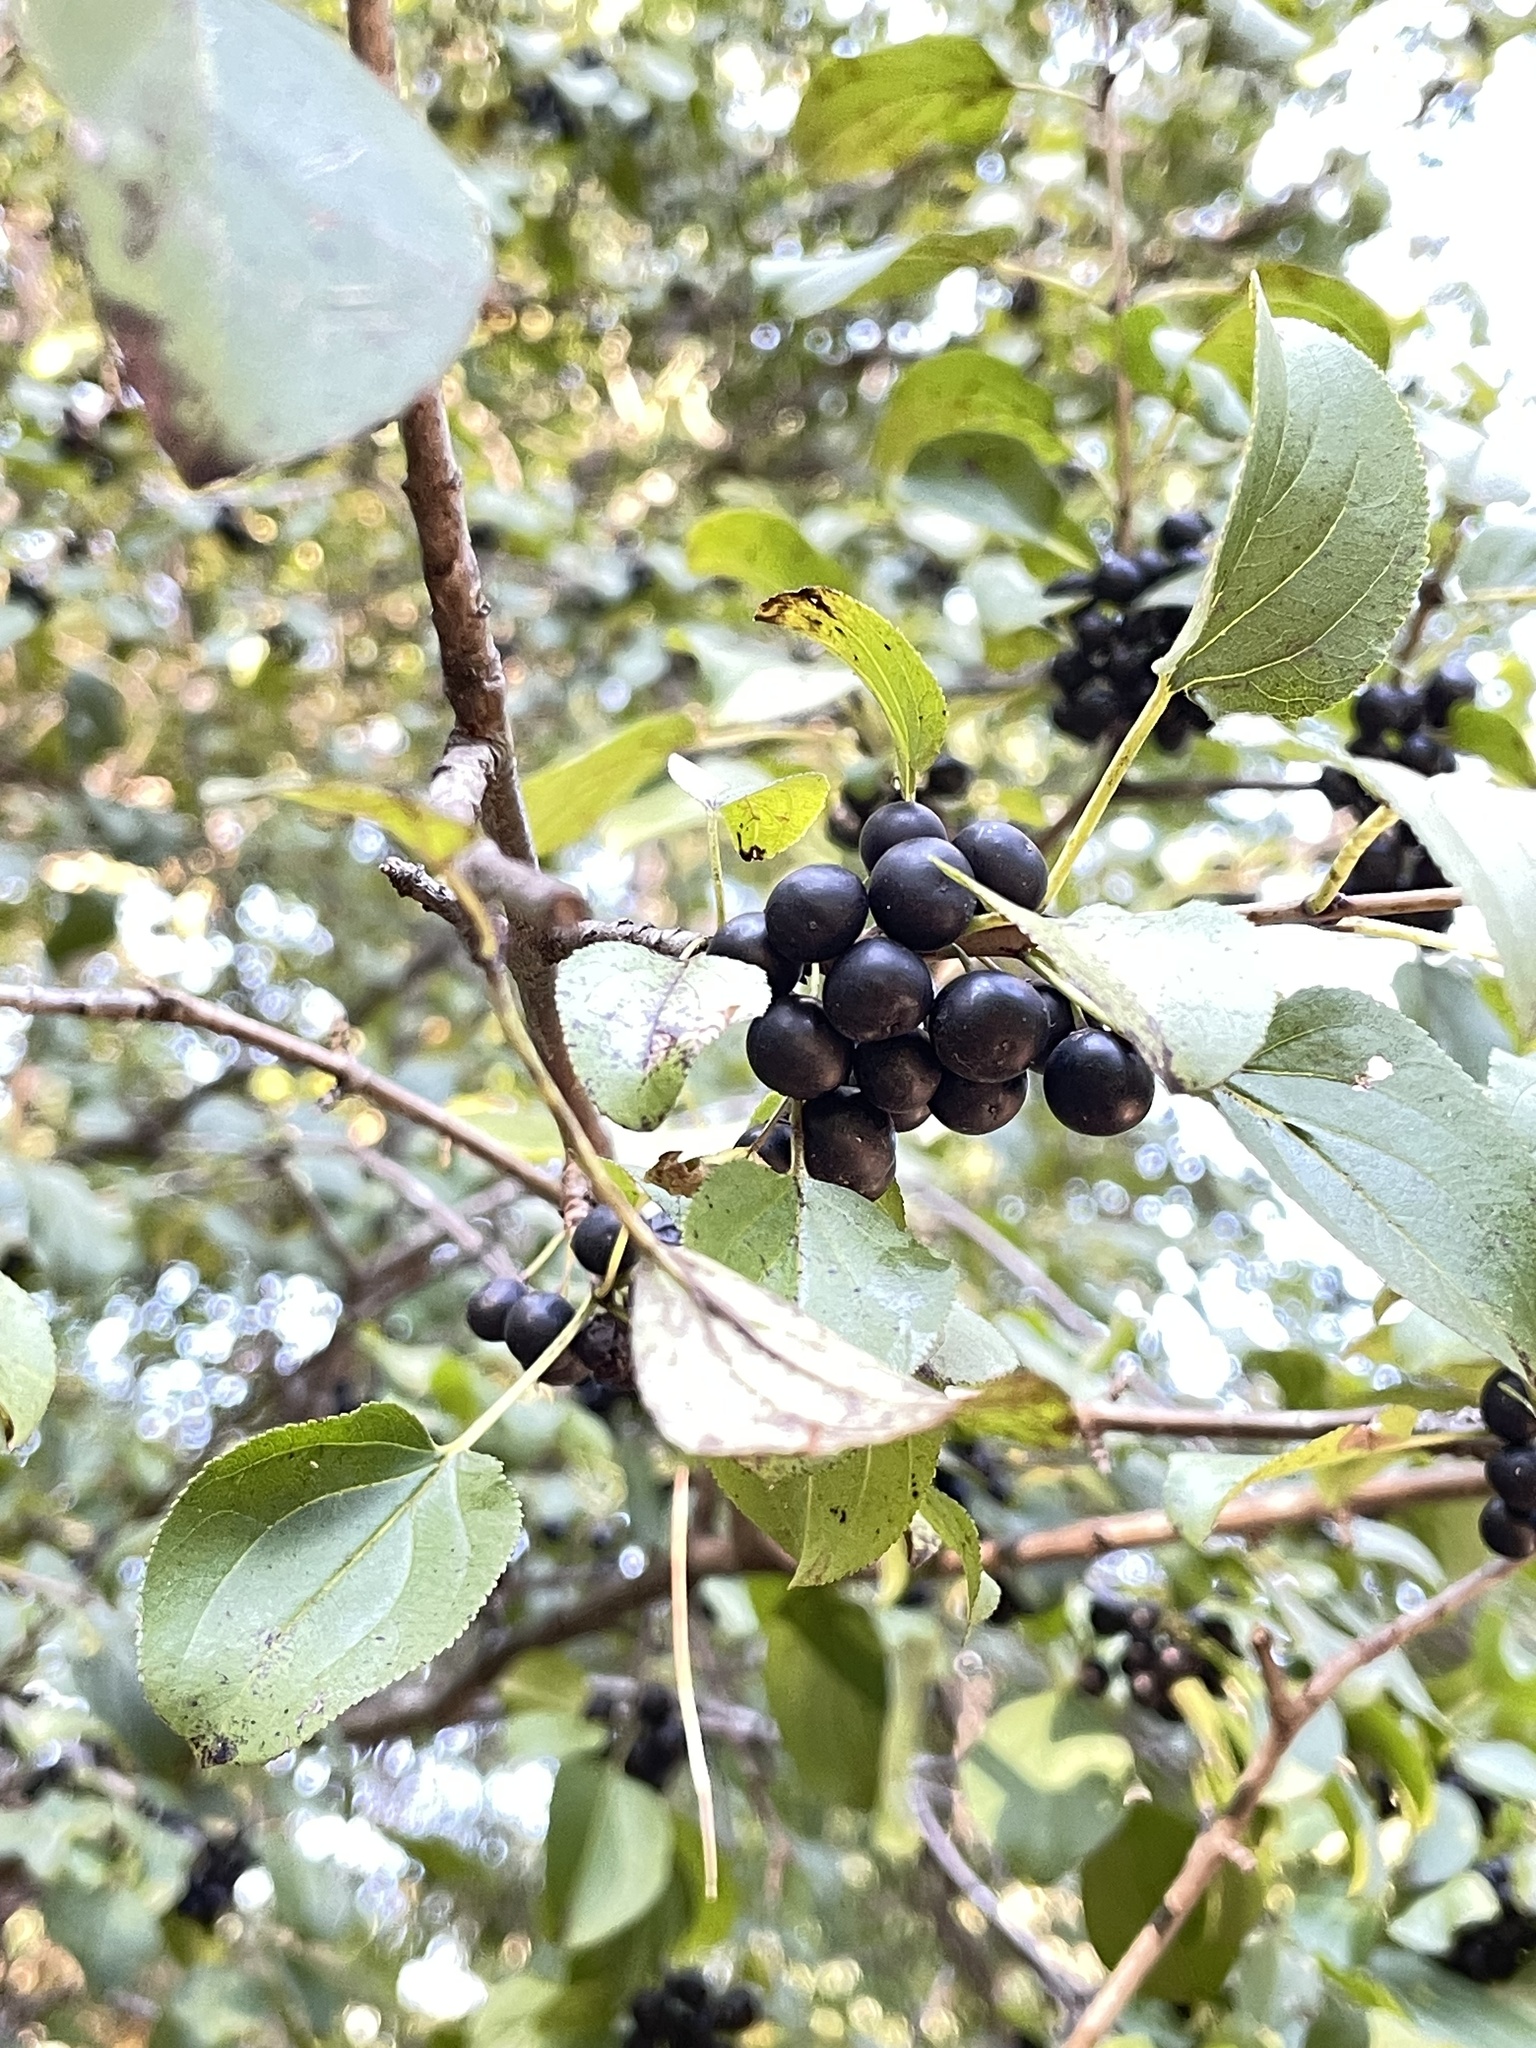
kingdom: Plantae
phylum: Tracheophyta
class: Magnoliopsida
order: Rosales
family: Rhamnaceae
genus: Rhamnus
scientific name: Rhamnus cathartica
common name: Common buckthorn
